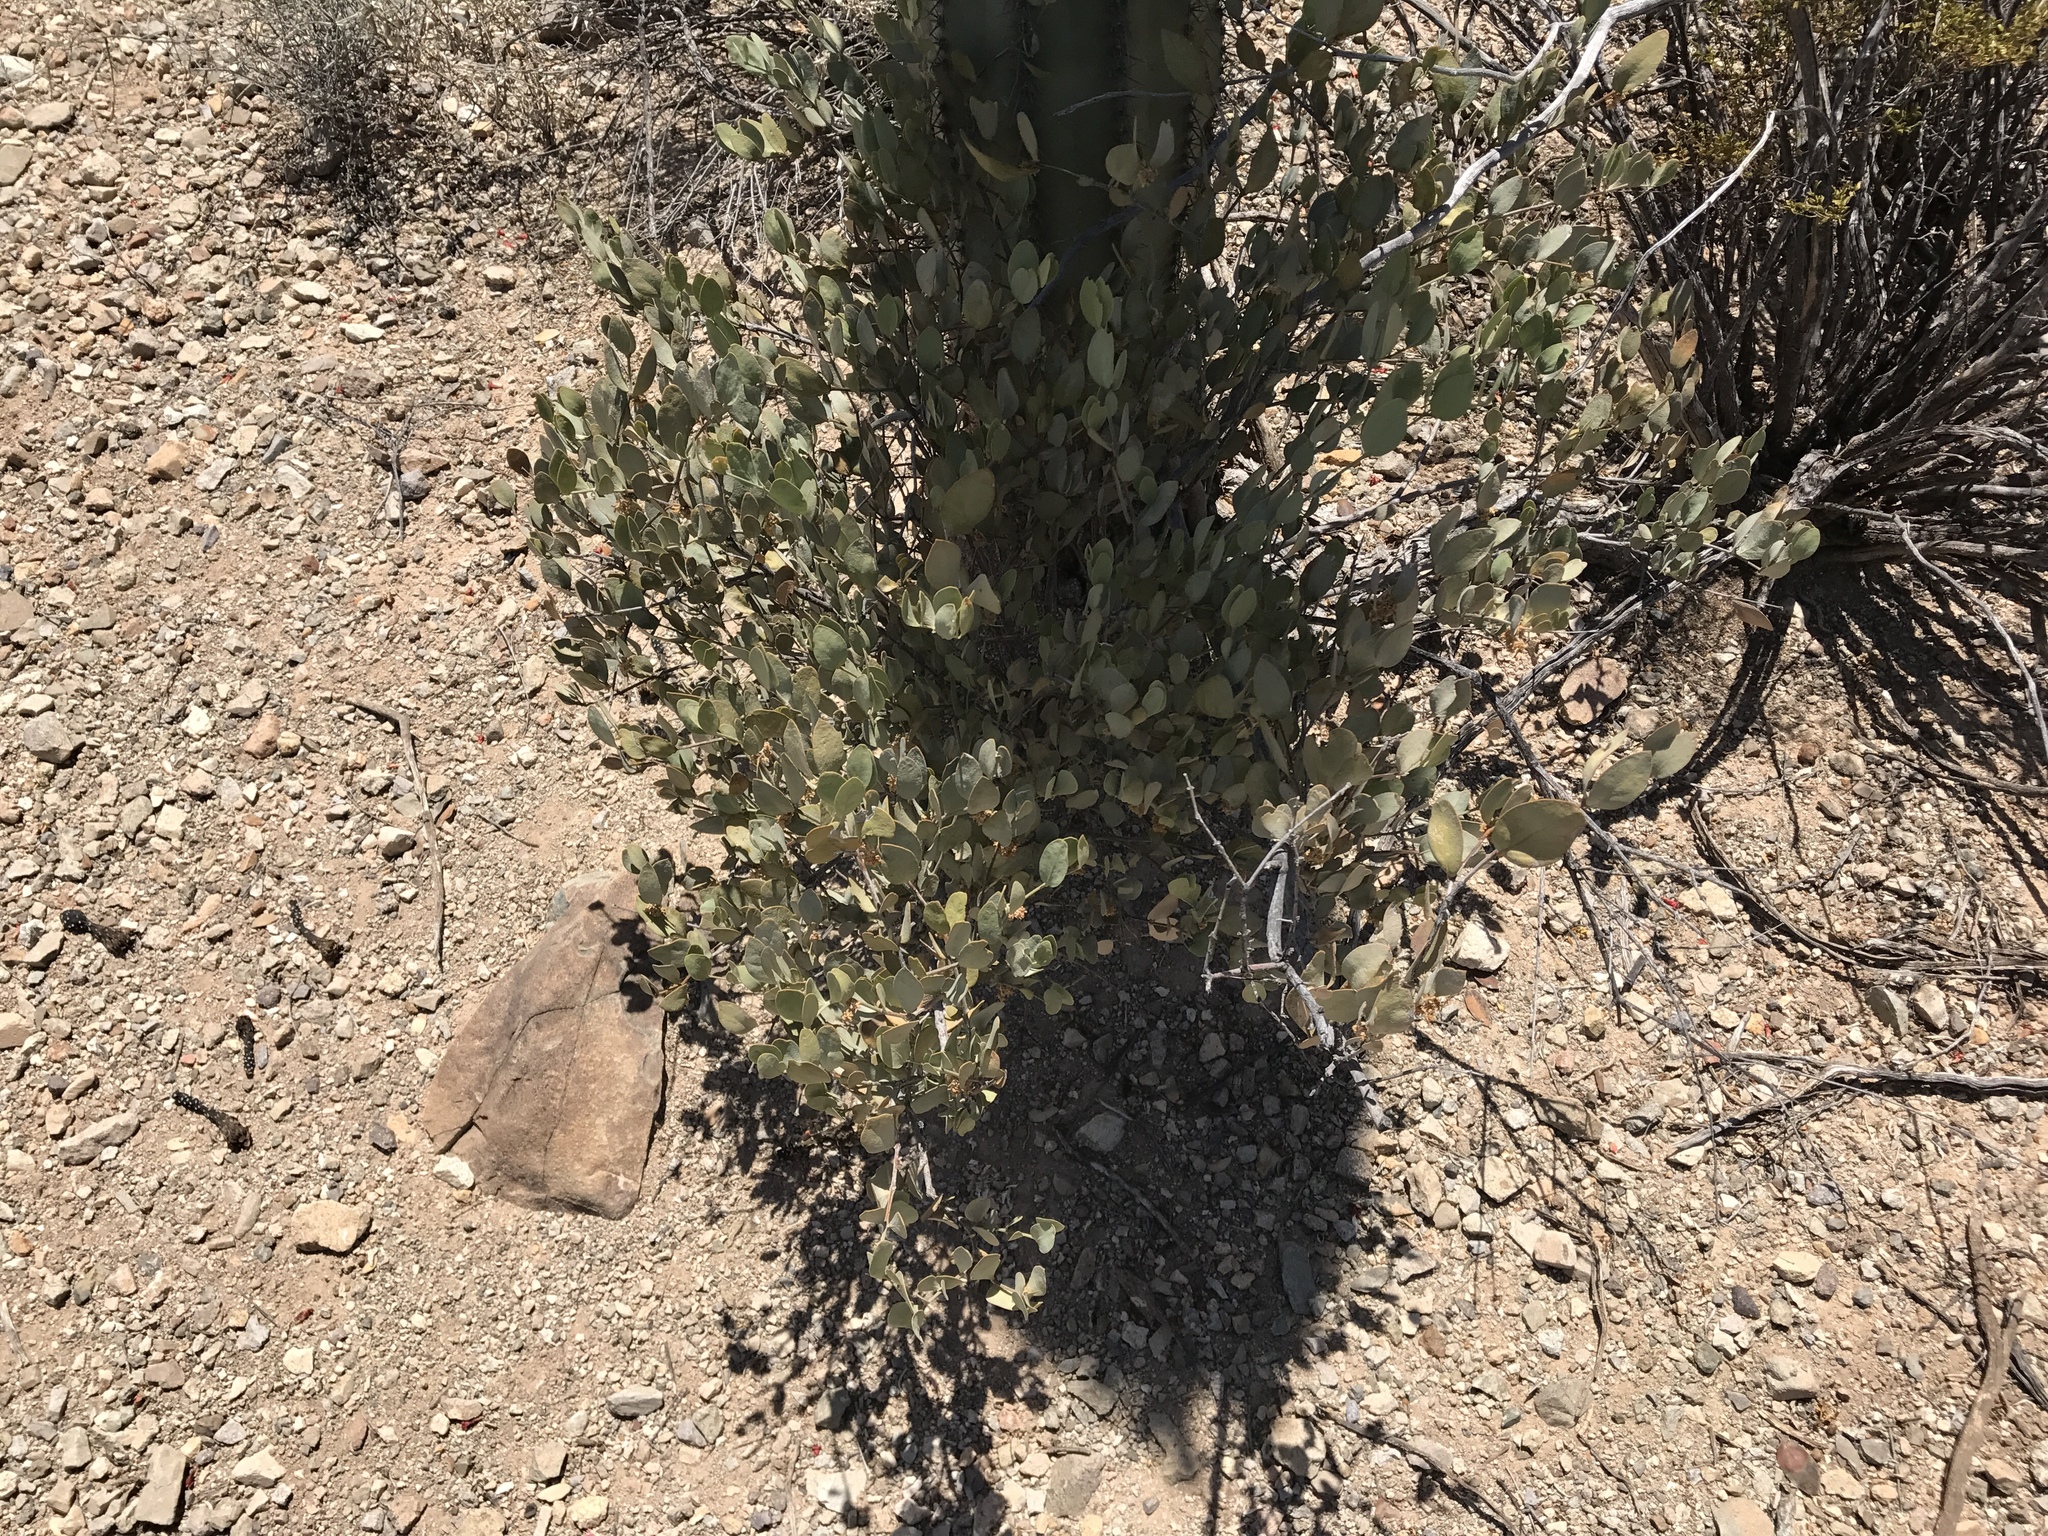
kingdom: Plantae
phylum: Tracheophyta
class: Magnoliopsida
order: Caryophyllales
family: Simmondsiaceae
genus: Simmondsia
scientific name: Simmondsia chinensis
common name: Jojoba
